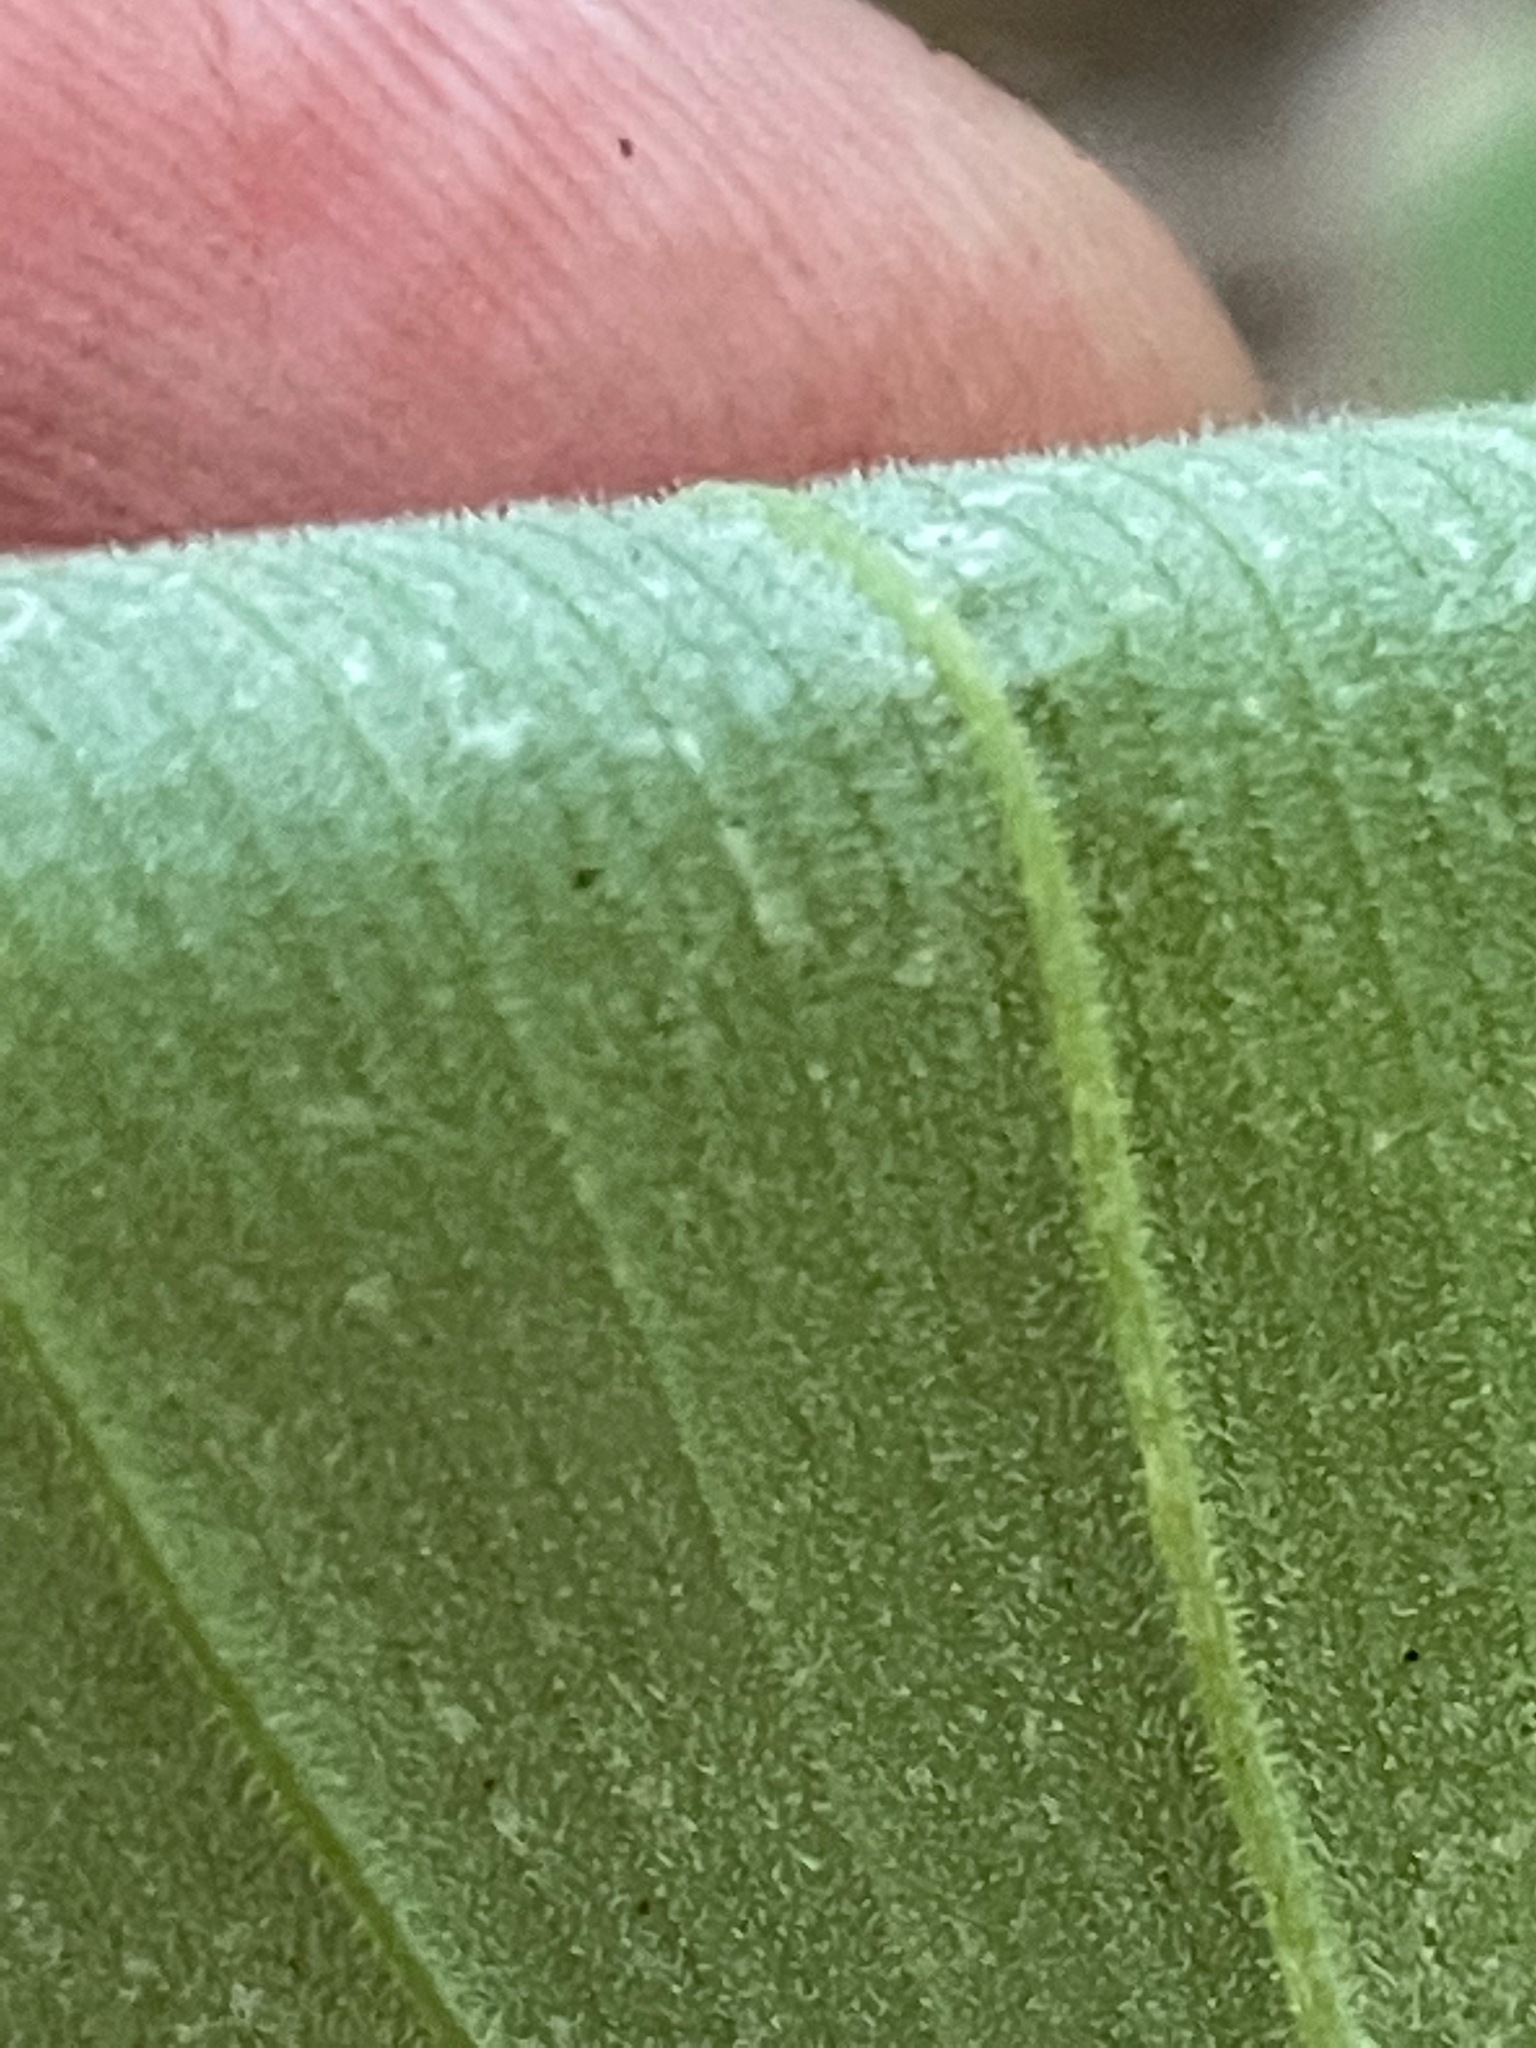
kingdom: Plantae
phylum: Tracheophyta
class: Liliopsida
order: Liliales
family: Colchicaceae
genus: Uvularia
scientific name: Uvularia grandiflora
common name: Bellwort
